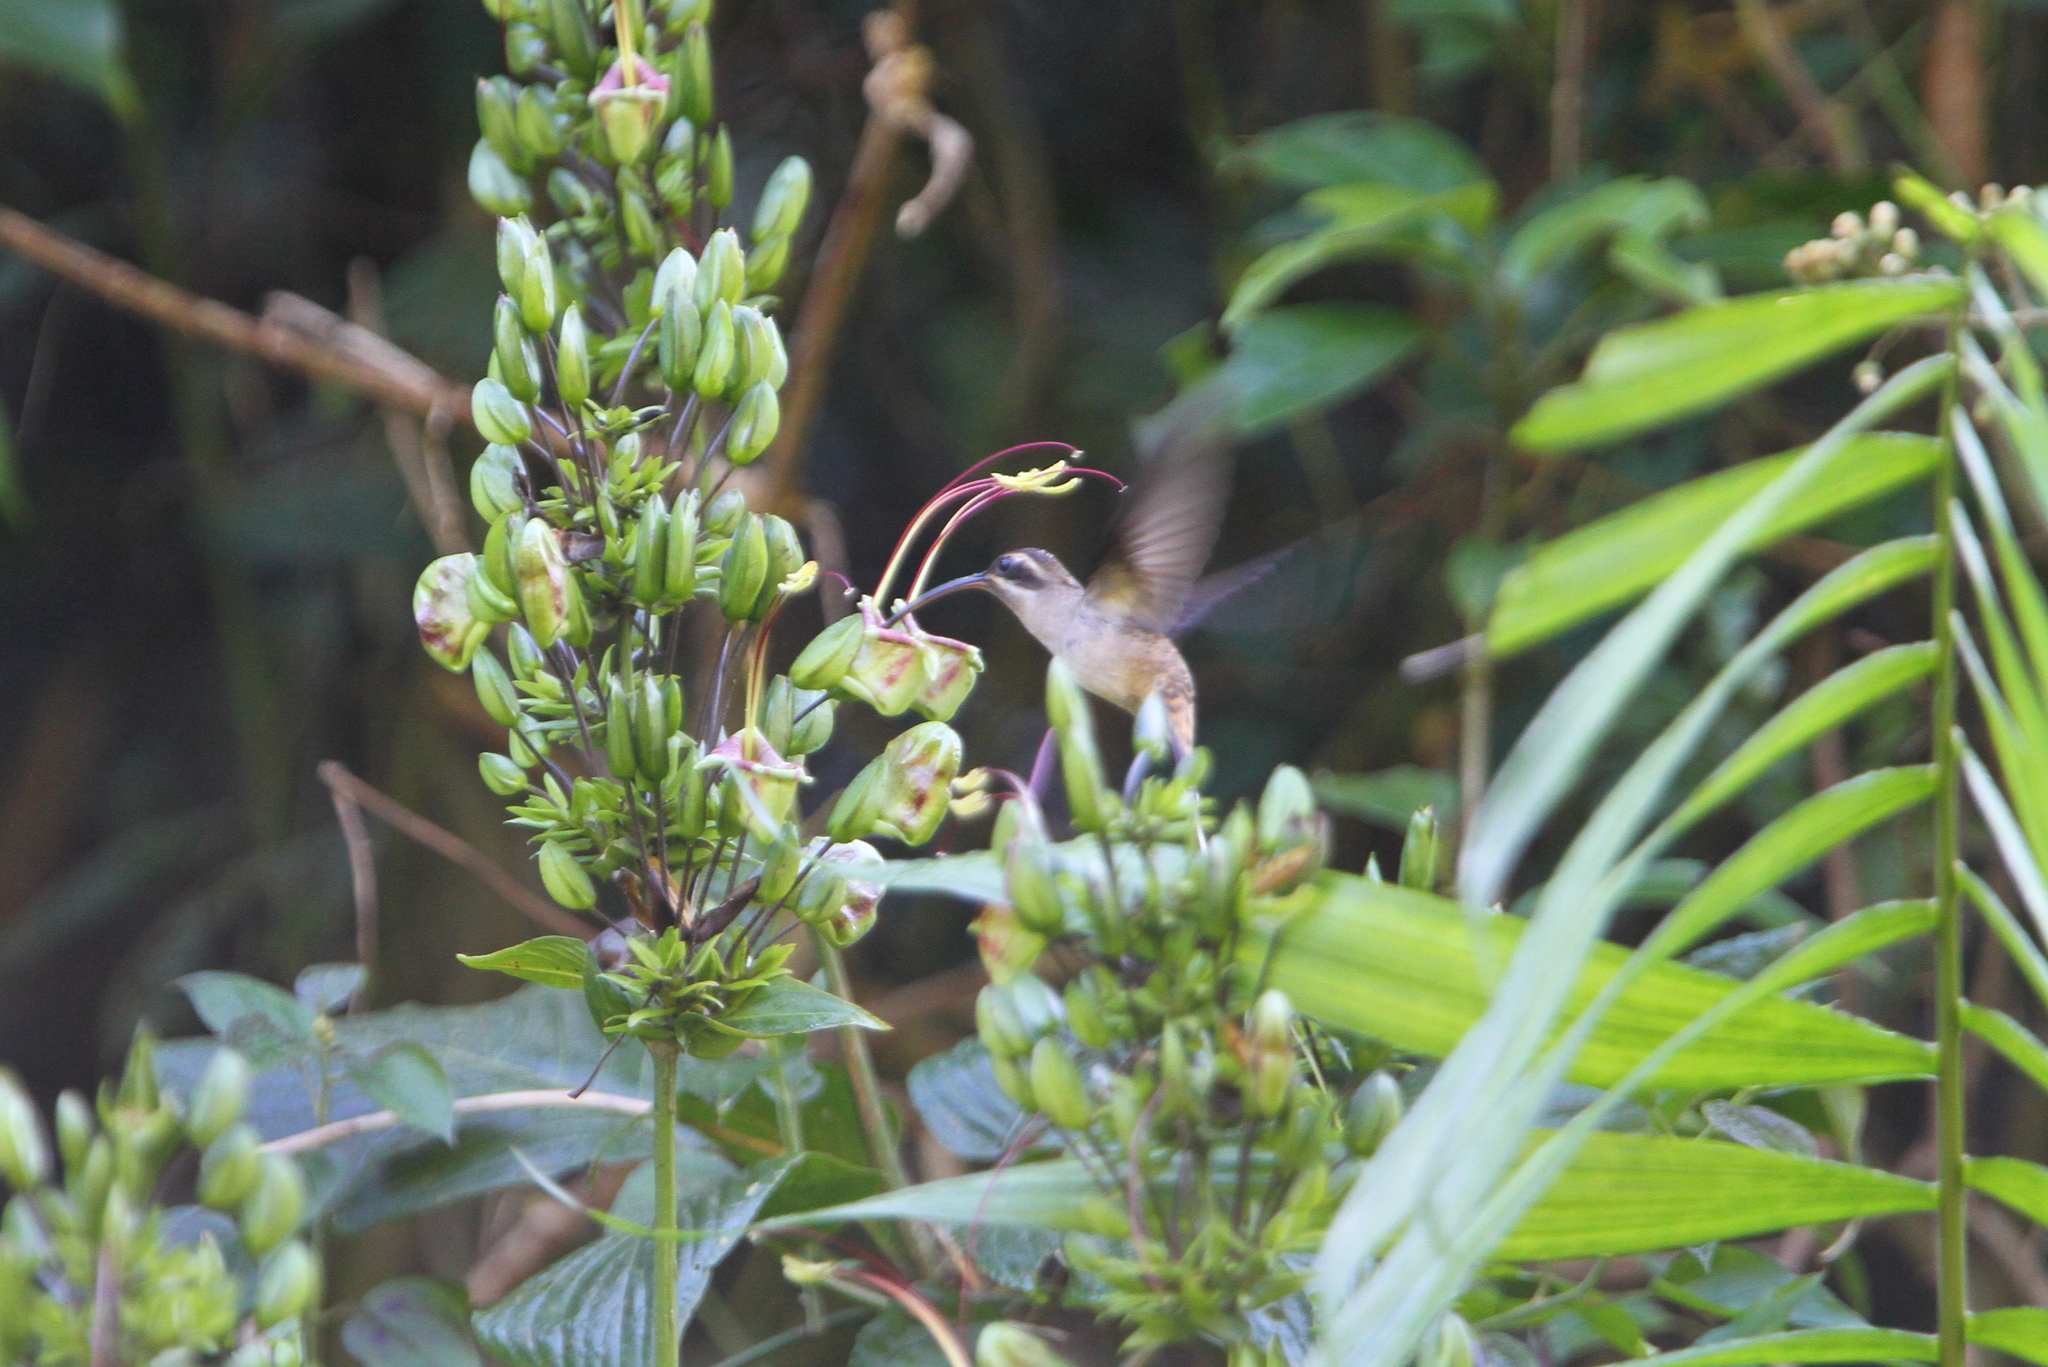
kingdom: Animalia
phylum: Chordata
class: Aves
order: Apodiformes
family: Trochilidae
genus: Phaethornis
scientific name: Phaethornis longirostris
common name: Long-billed hermit
